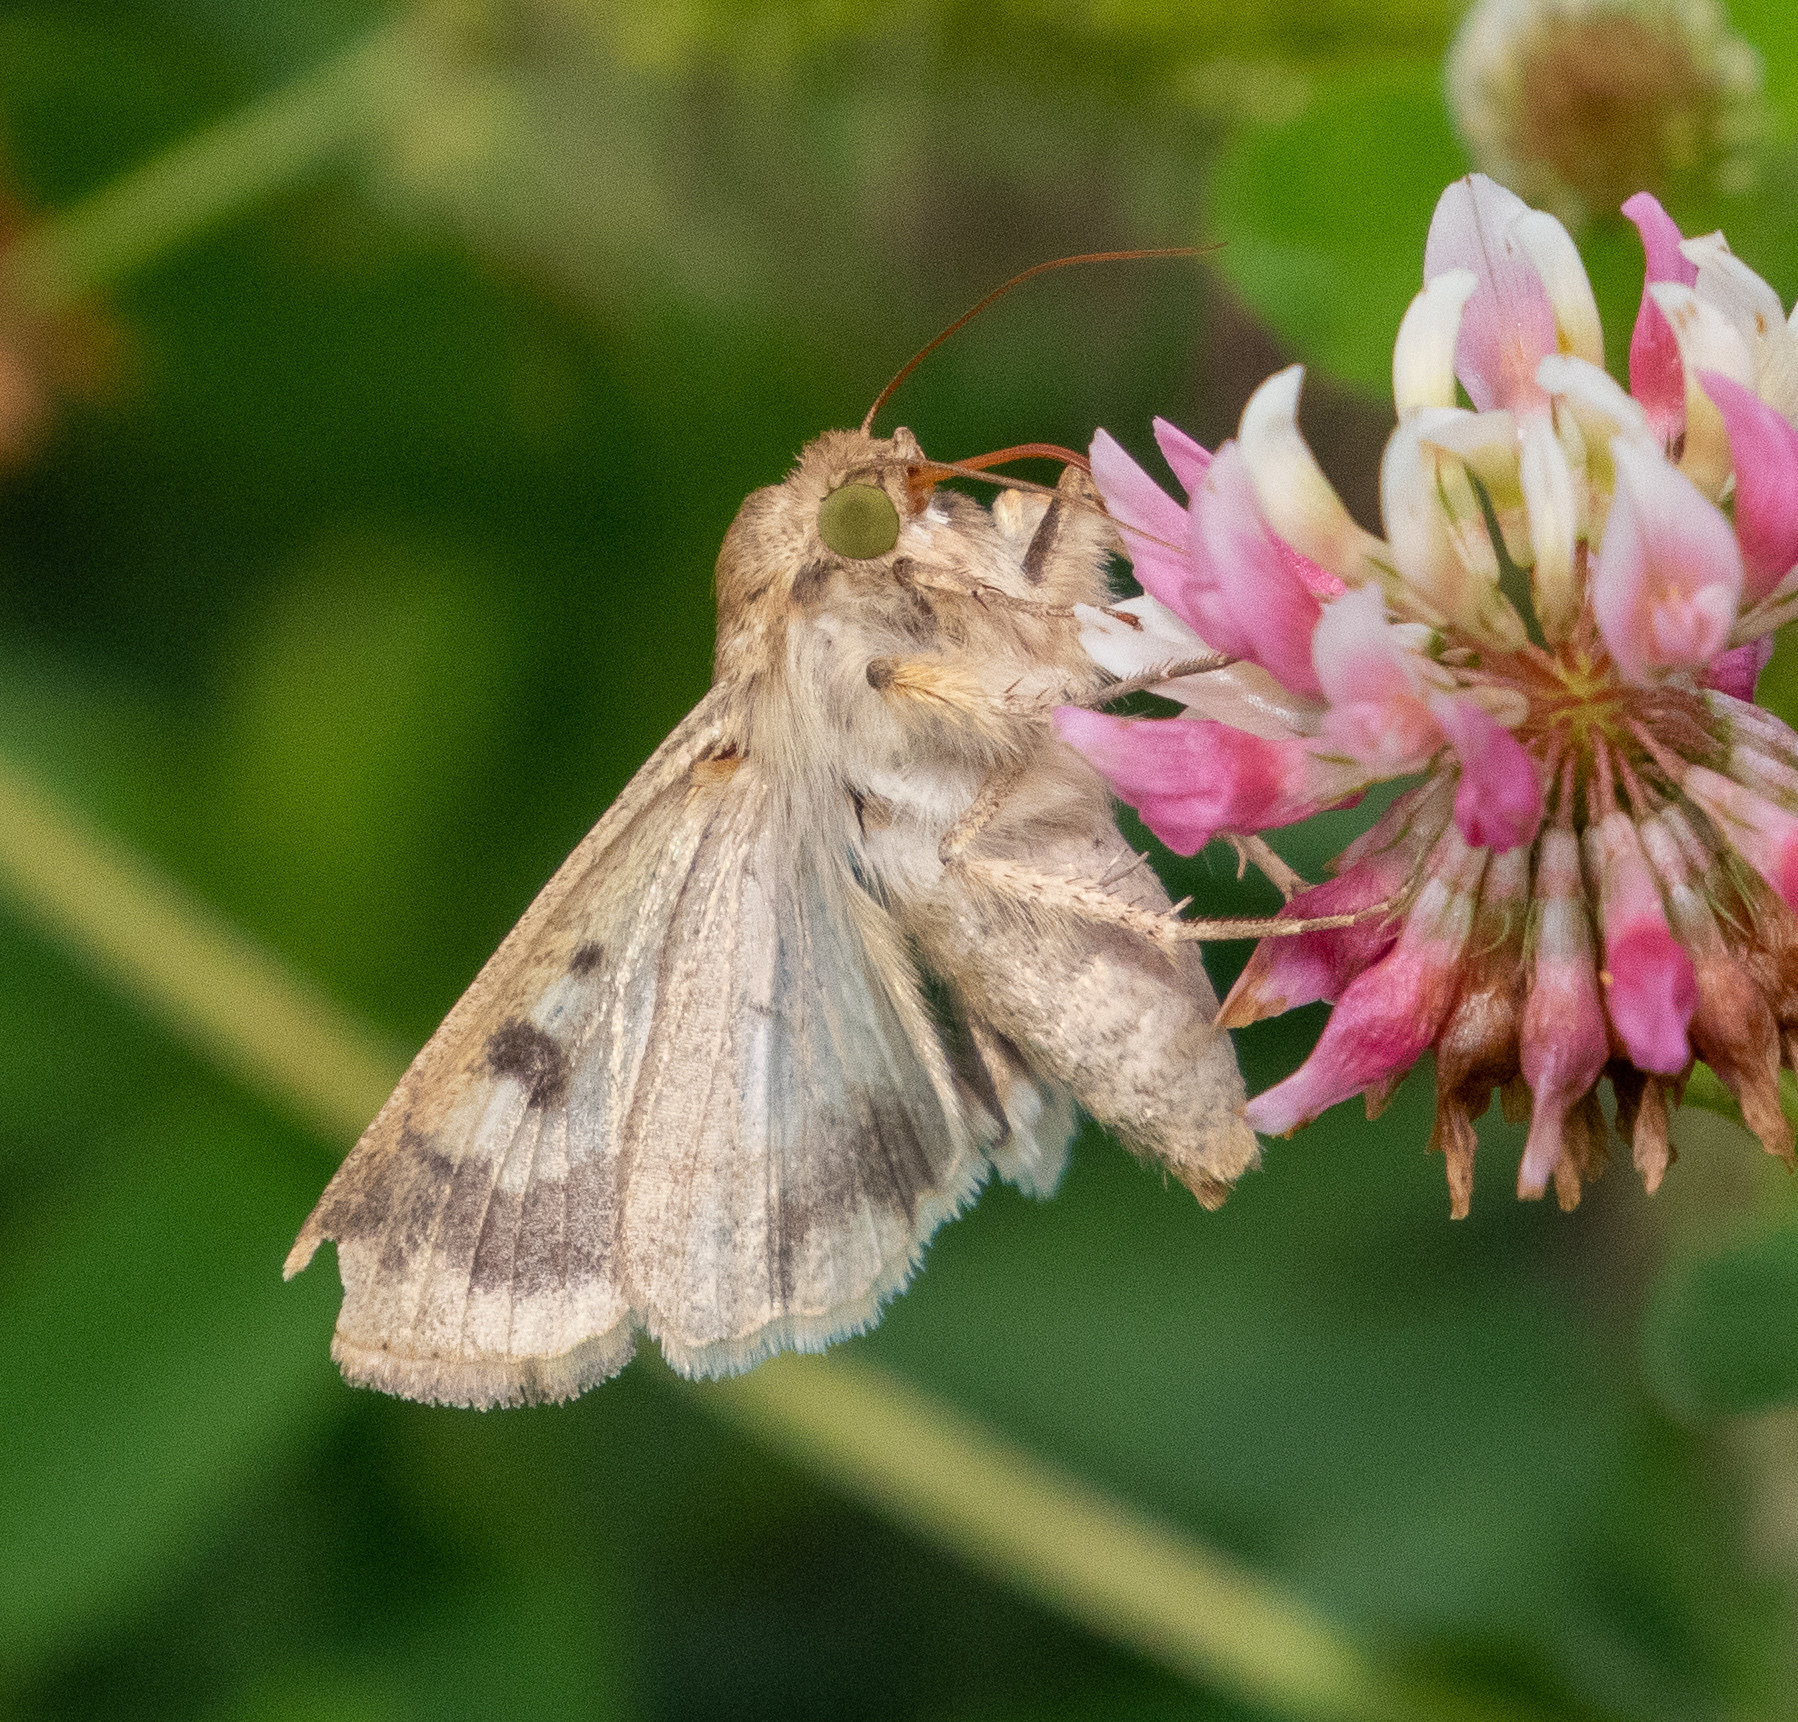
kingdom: Animalia
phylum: Arthropoda
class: Insecta
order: Lepidoptera
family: Noctuidae
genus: Helicoverpa
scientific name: Helicoverpa zea
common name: Bollworm
